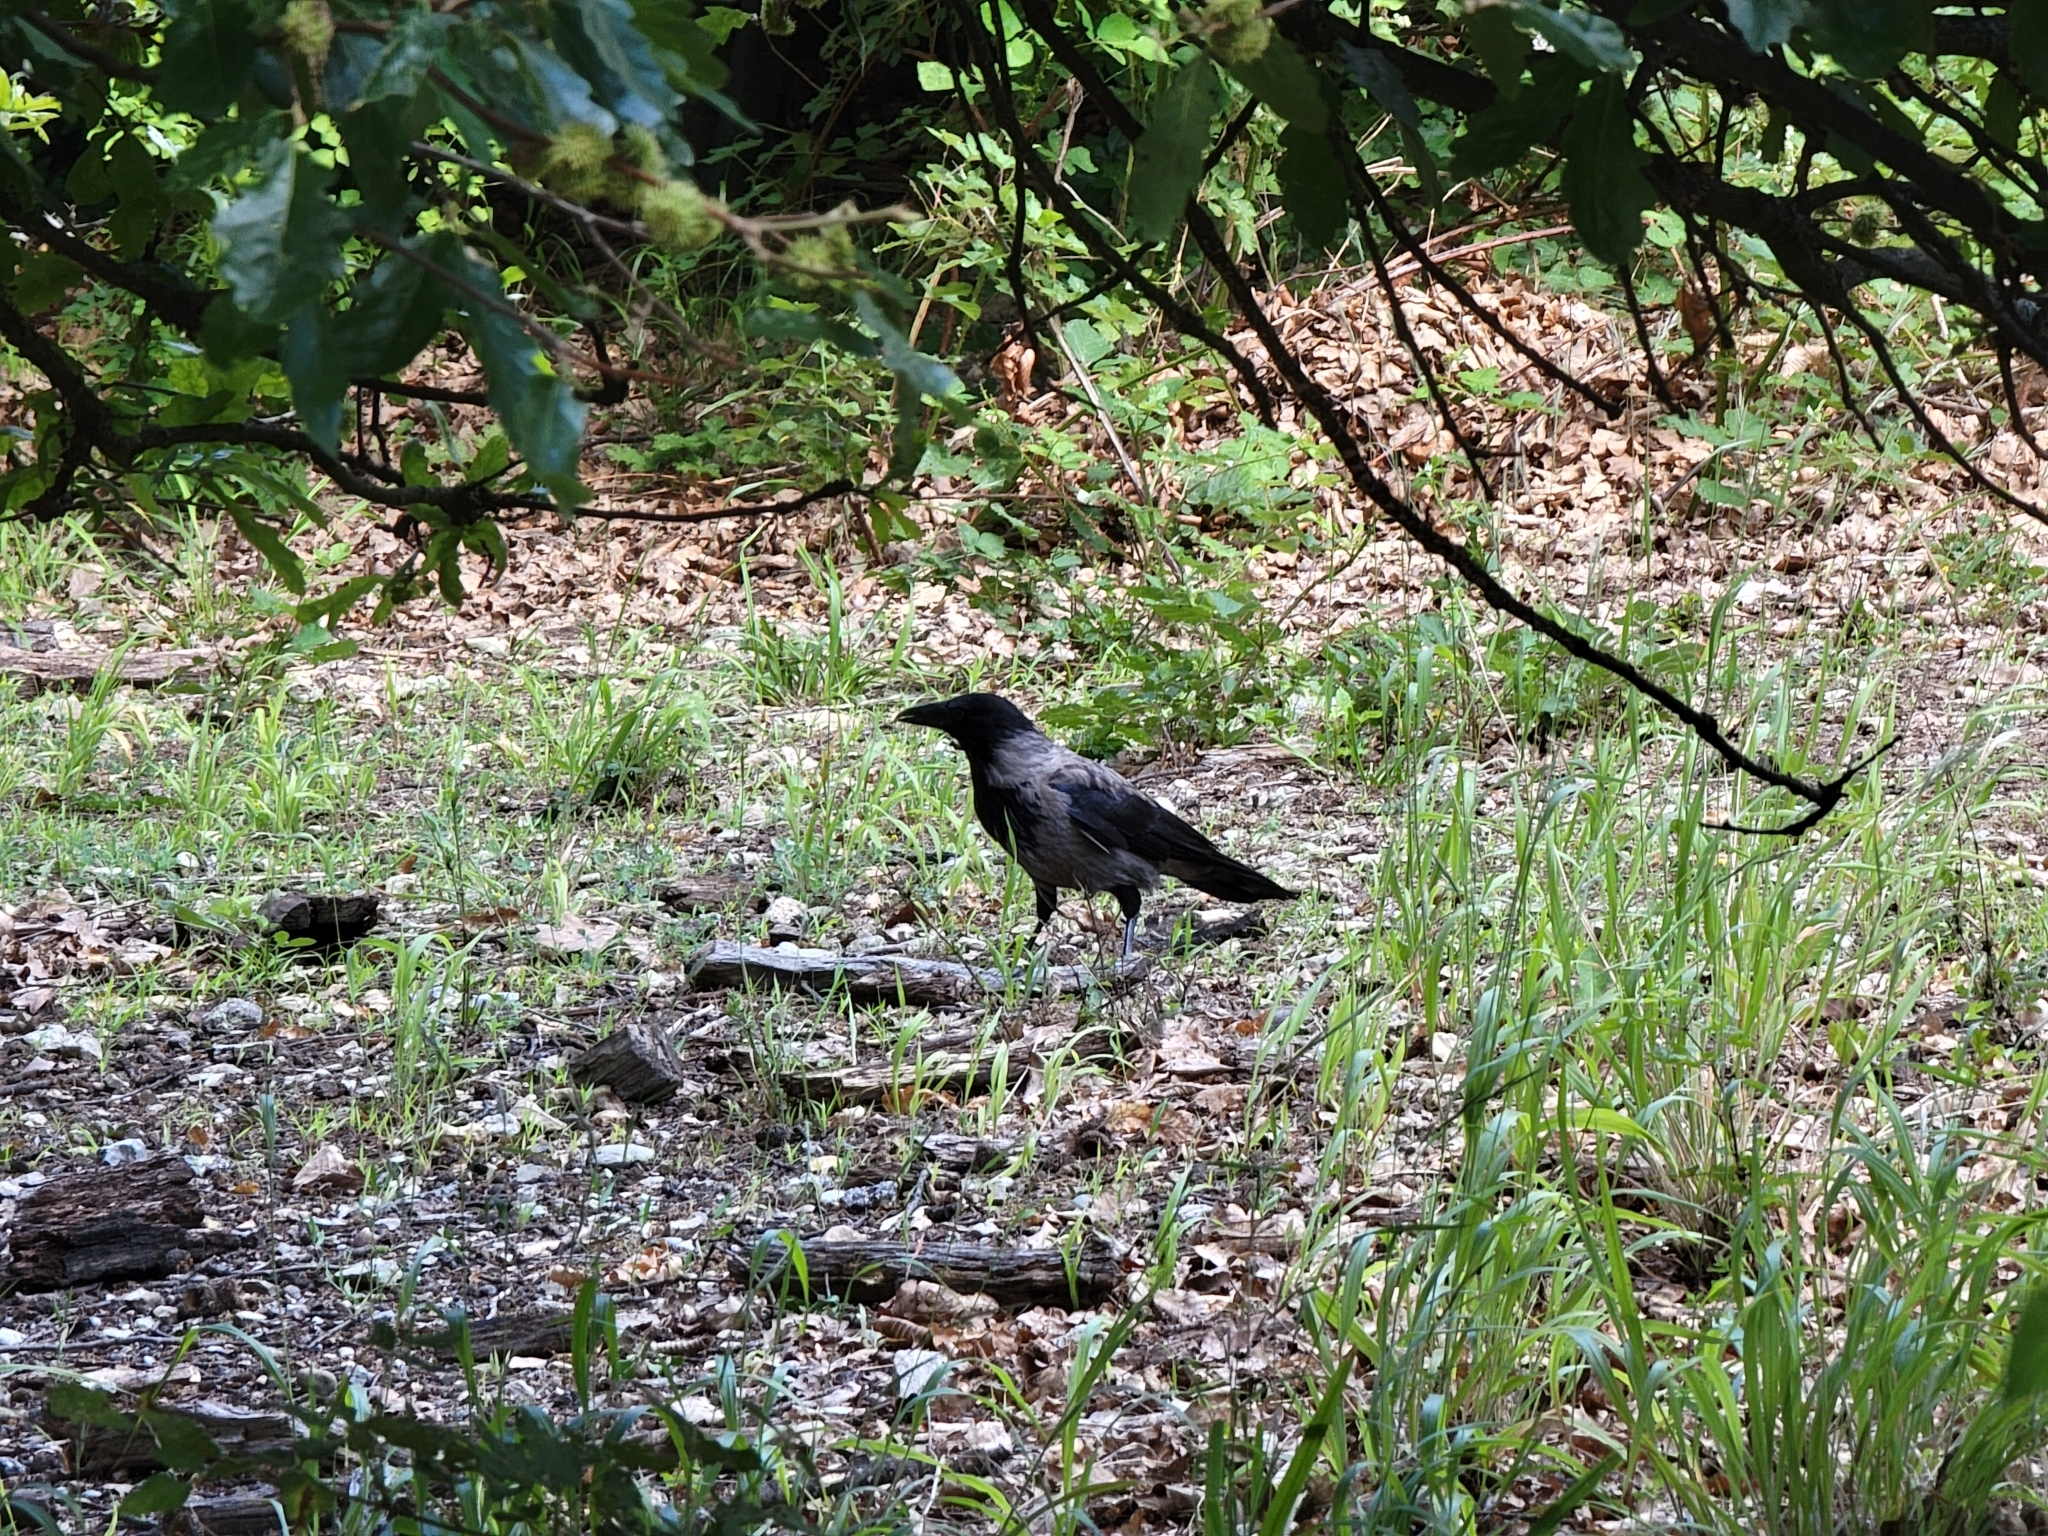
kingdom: Animalia
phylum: Chordata
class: Aves
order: Passeriformes
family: Corvidae
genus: Corvus
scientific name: Corvus cornix
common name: Hooded crow
